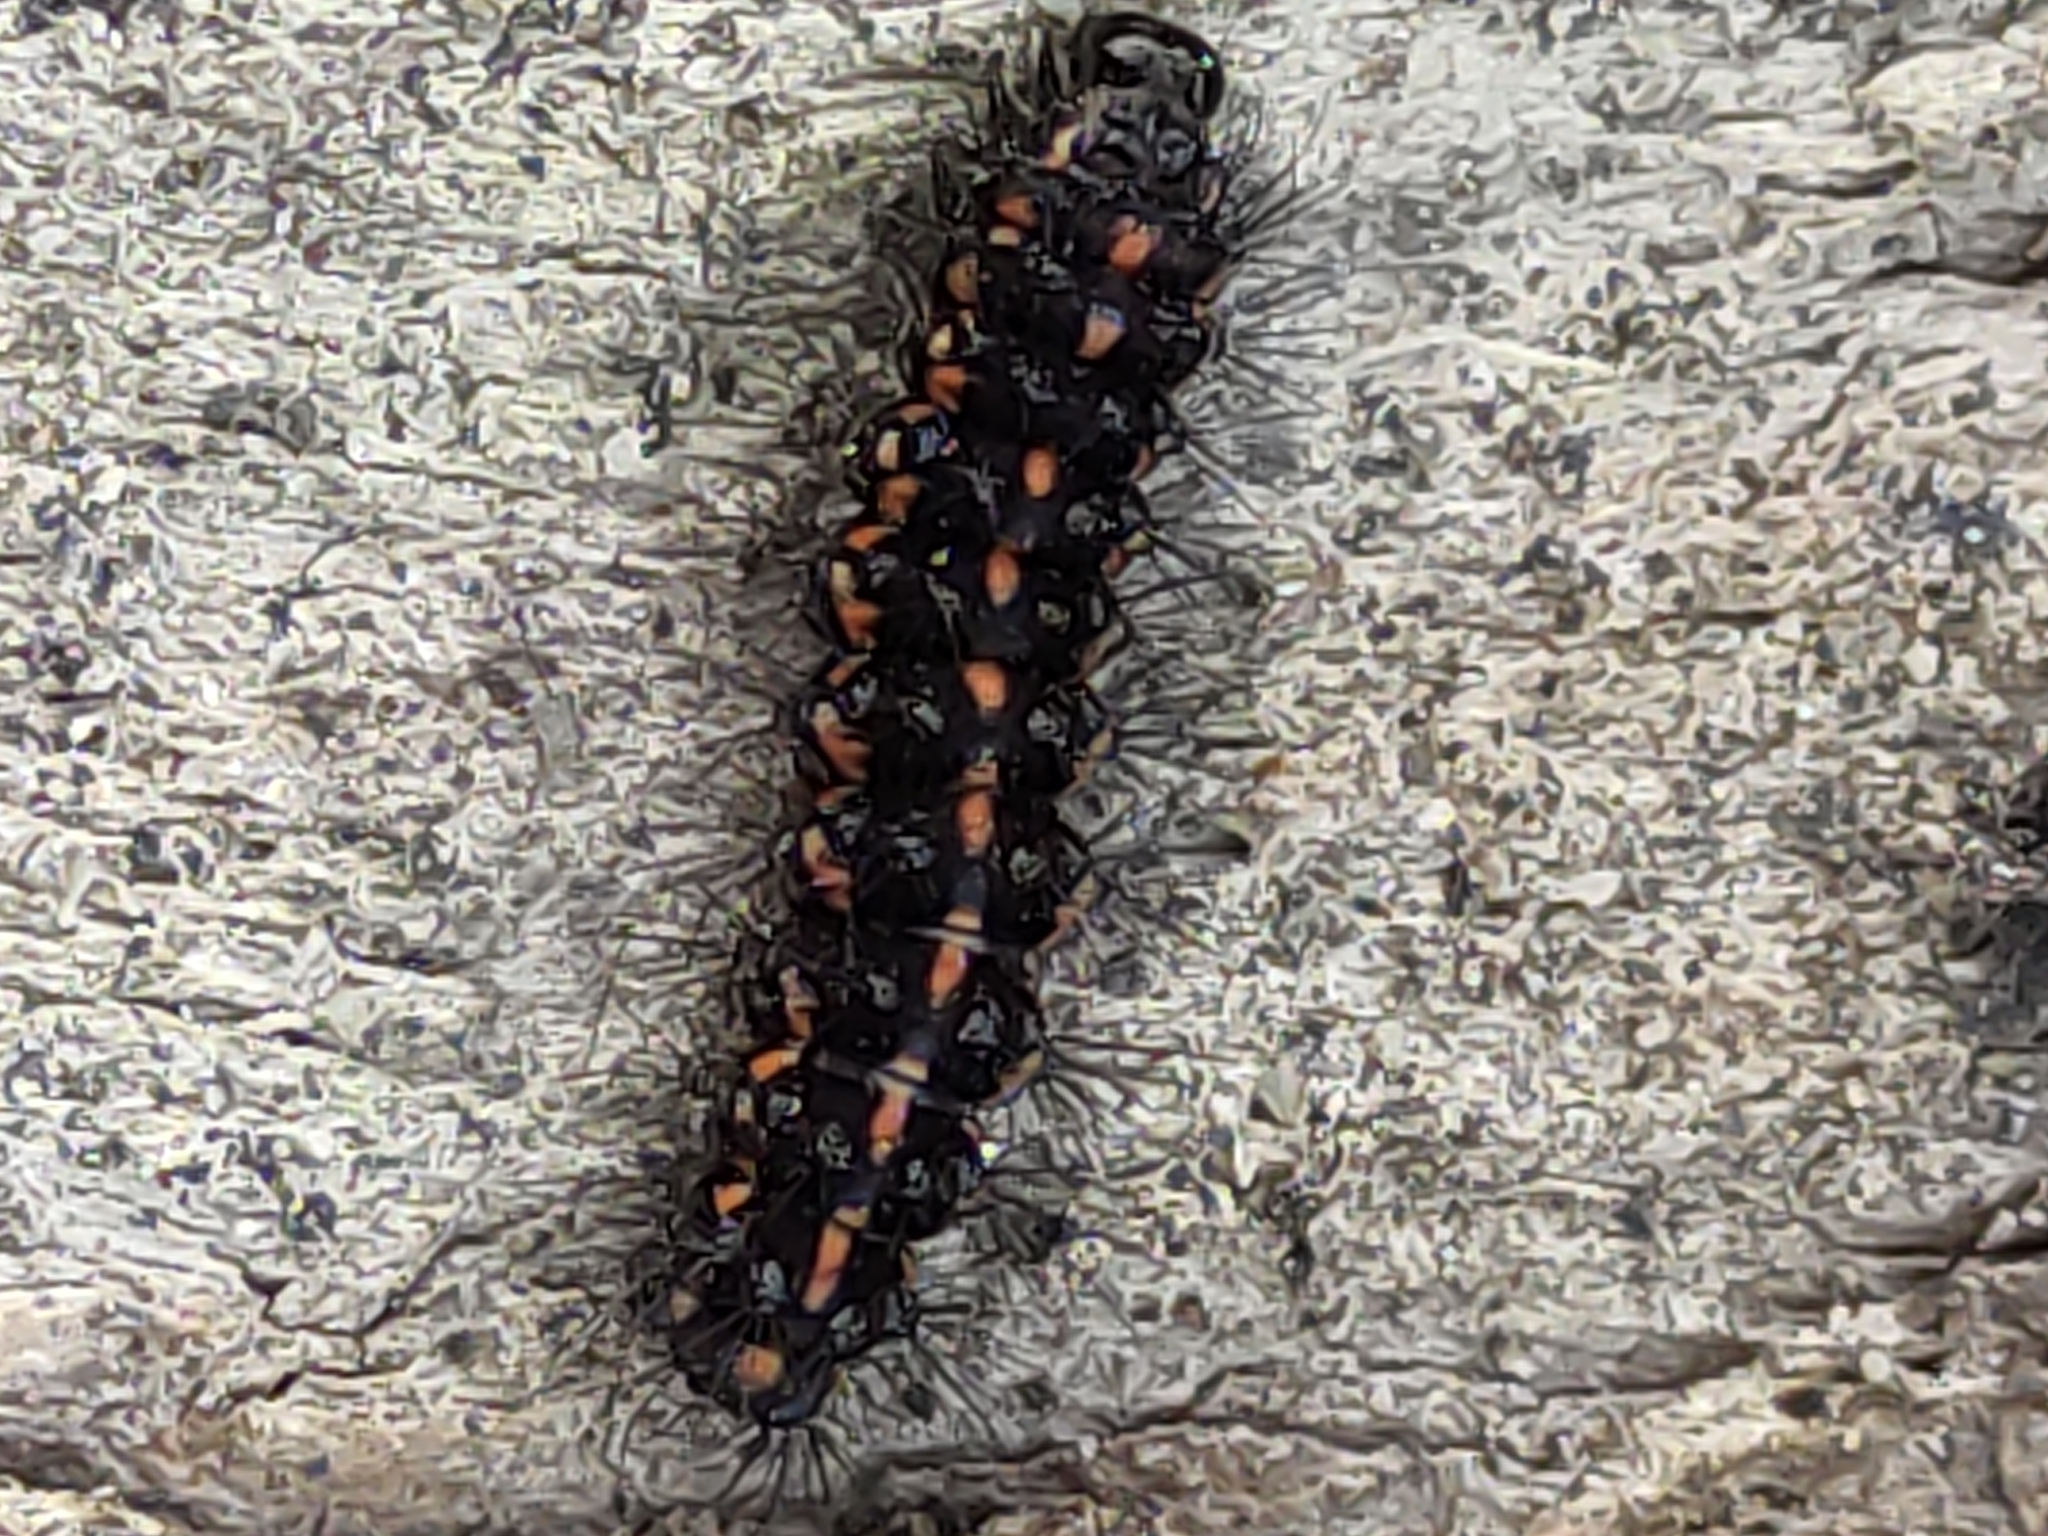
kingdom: Animalia
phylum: Arthropoda
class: Insecta
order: Lepidoptera
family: Erebidae
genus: Nyctemera
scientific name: Nyctemera annulatum
